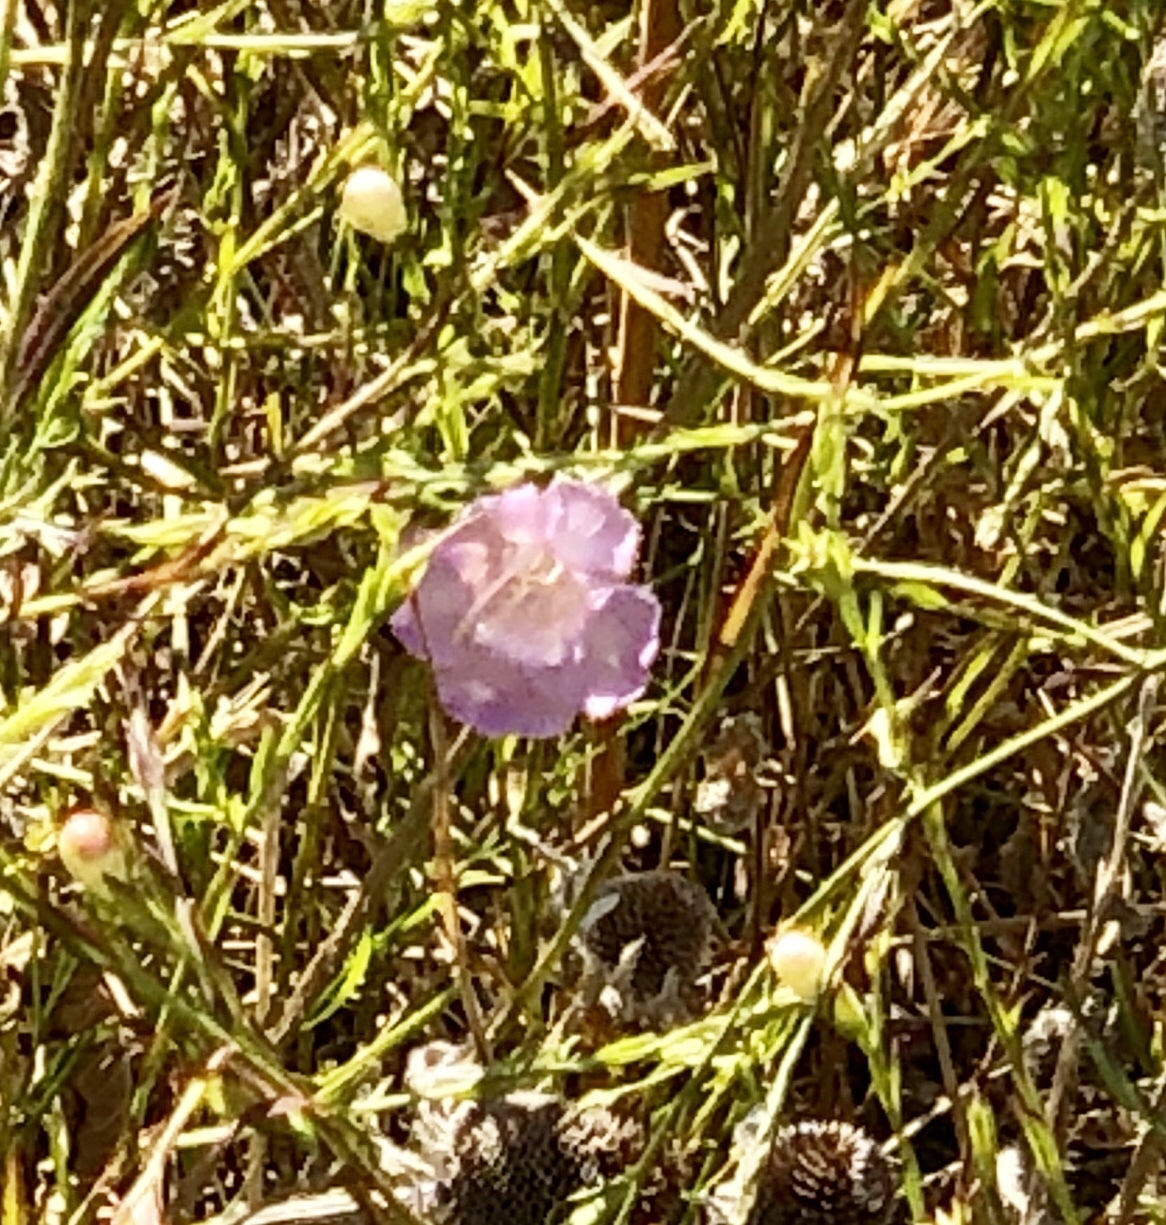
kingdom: Plantae
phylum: Tracheophyta
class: Magnoliopsida
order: Lamiales
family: Orobanchaceae
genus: Agalinis
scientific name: Agalinis heterophylla
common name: Prairie agalinis
